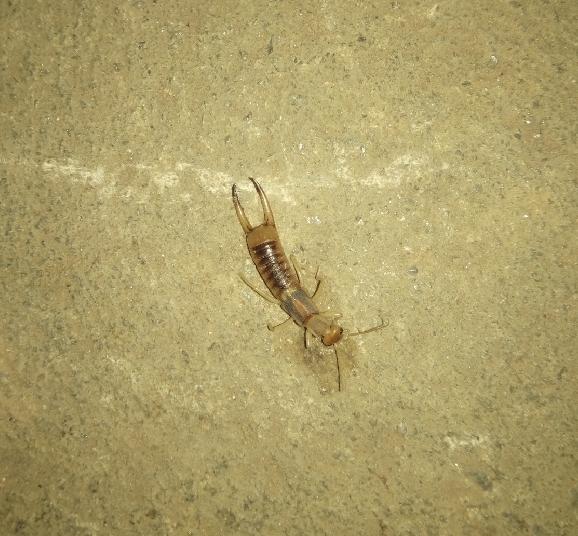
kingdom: Animalia
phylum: Arthropoda
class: Insecta
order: Dermaptera
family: Labiduridae
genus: Labidura
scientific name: Labidura riparia
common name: Striped earwig
